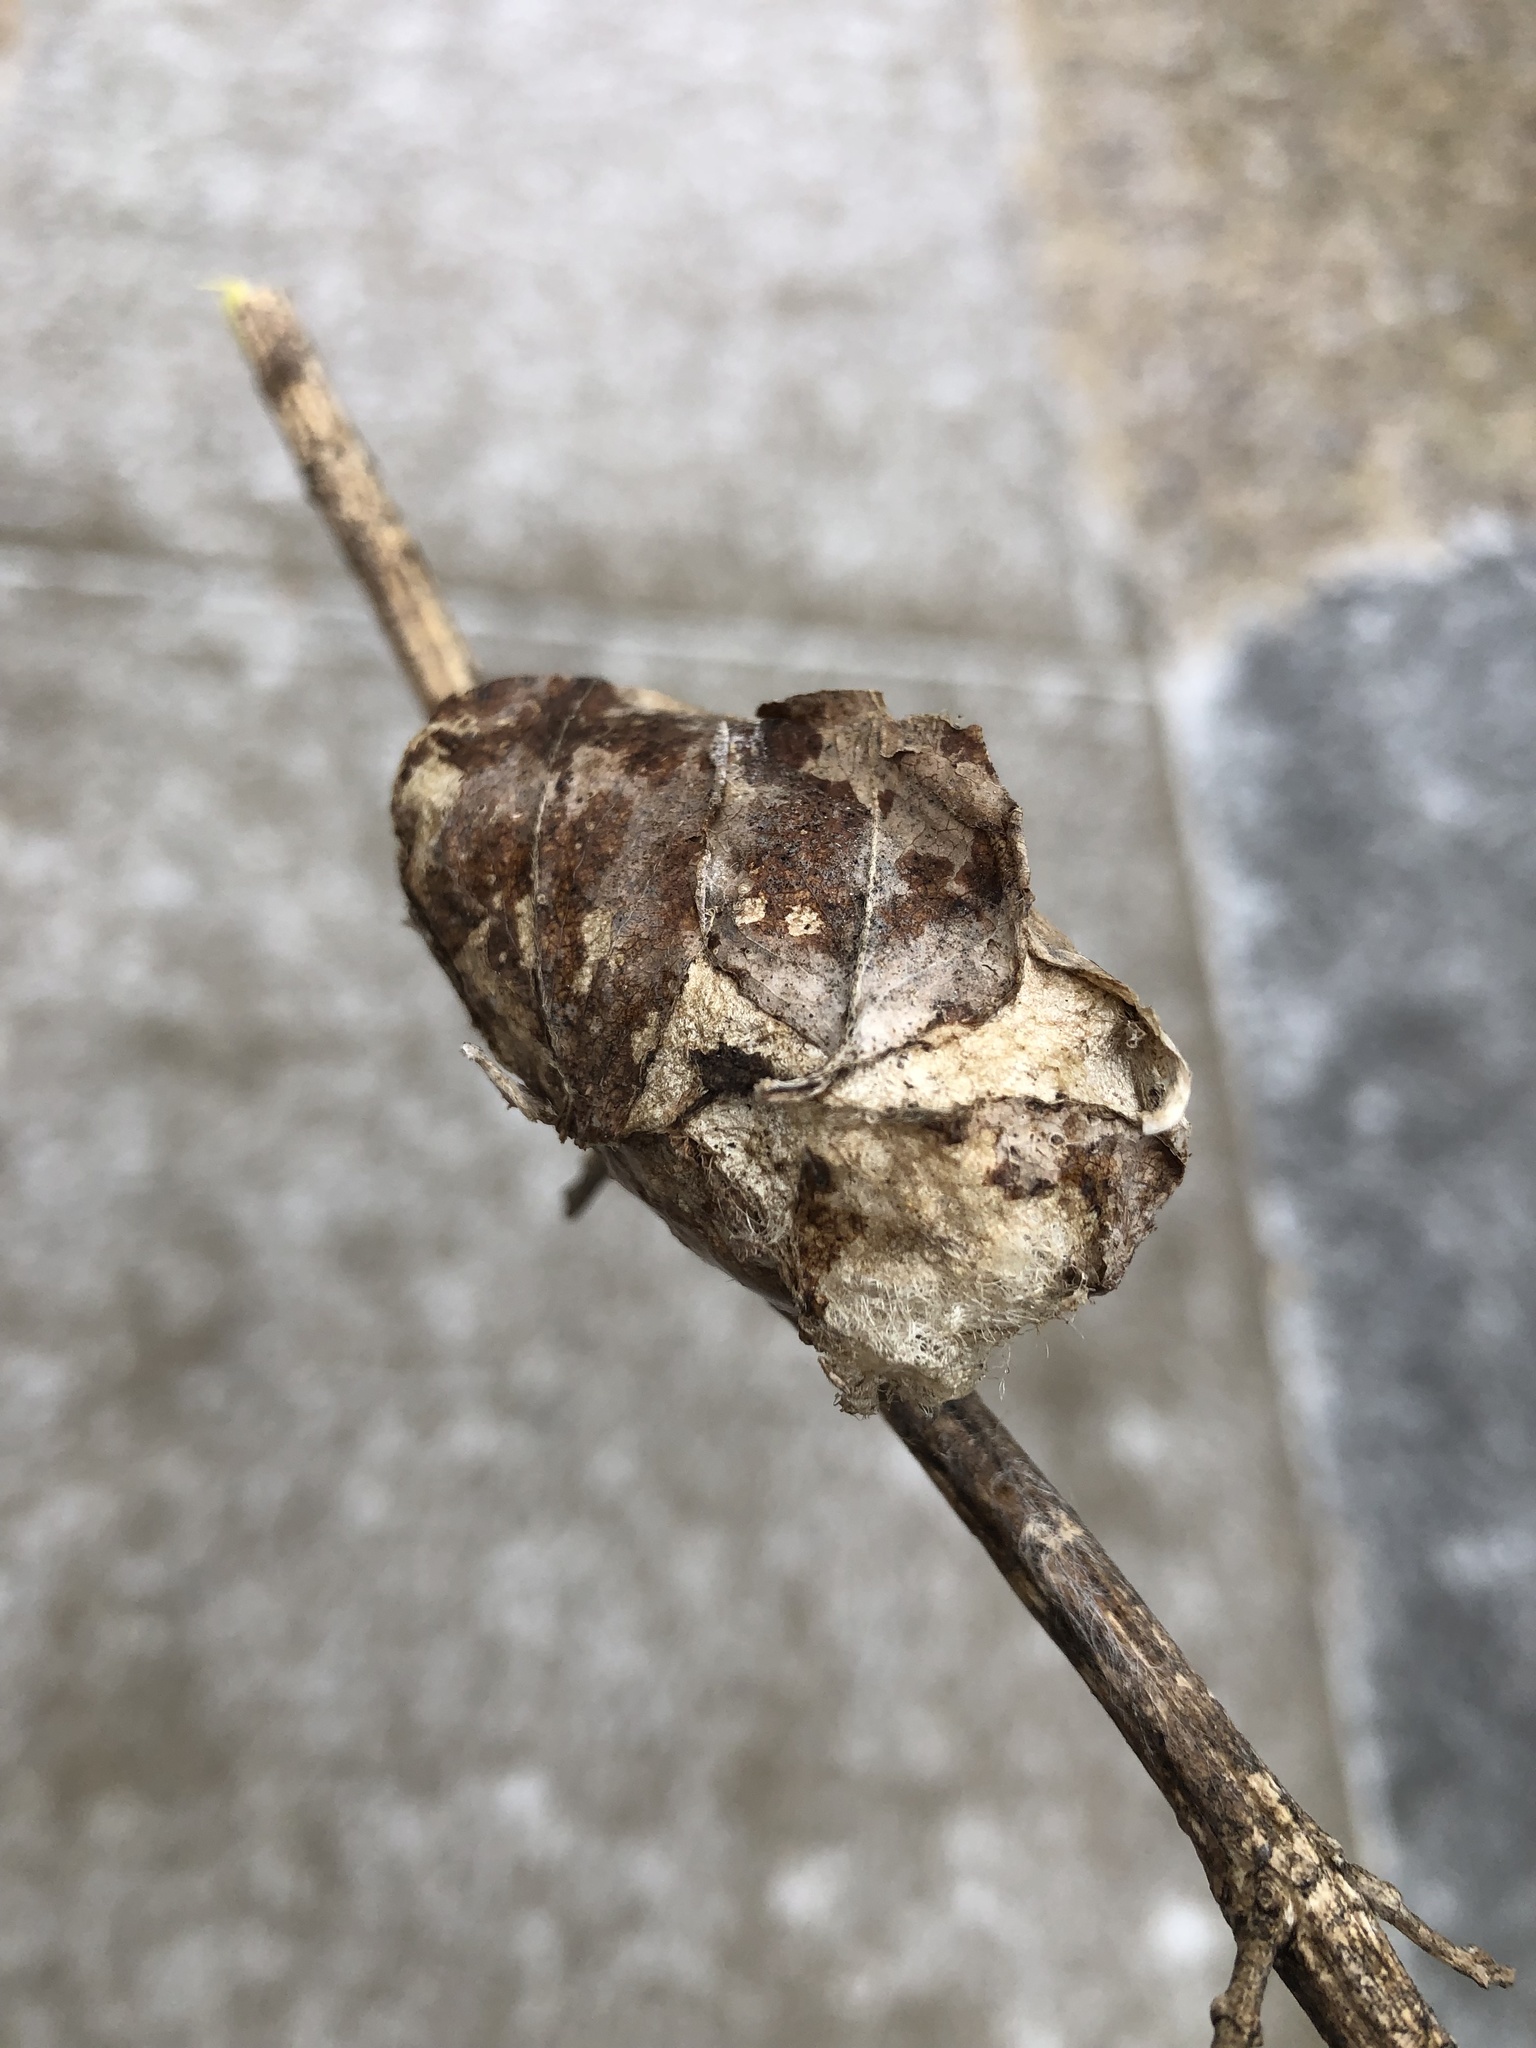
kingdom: Animalia
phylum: Arthropoda
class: Insecta
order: Lepidoptera
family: Saturniidae
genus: Antheraea
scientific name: Antheraea polyphemus
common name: Polyphemus moth
